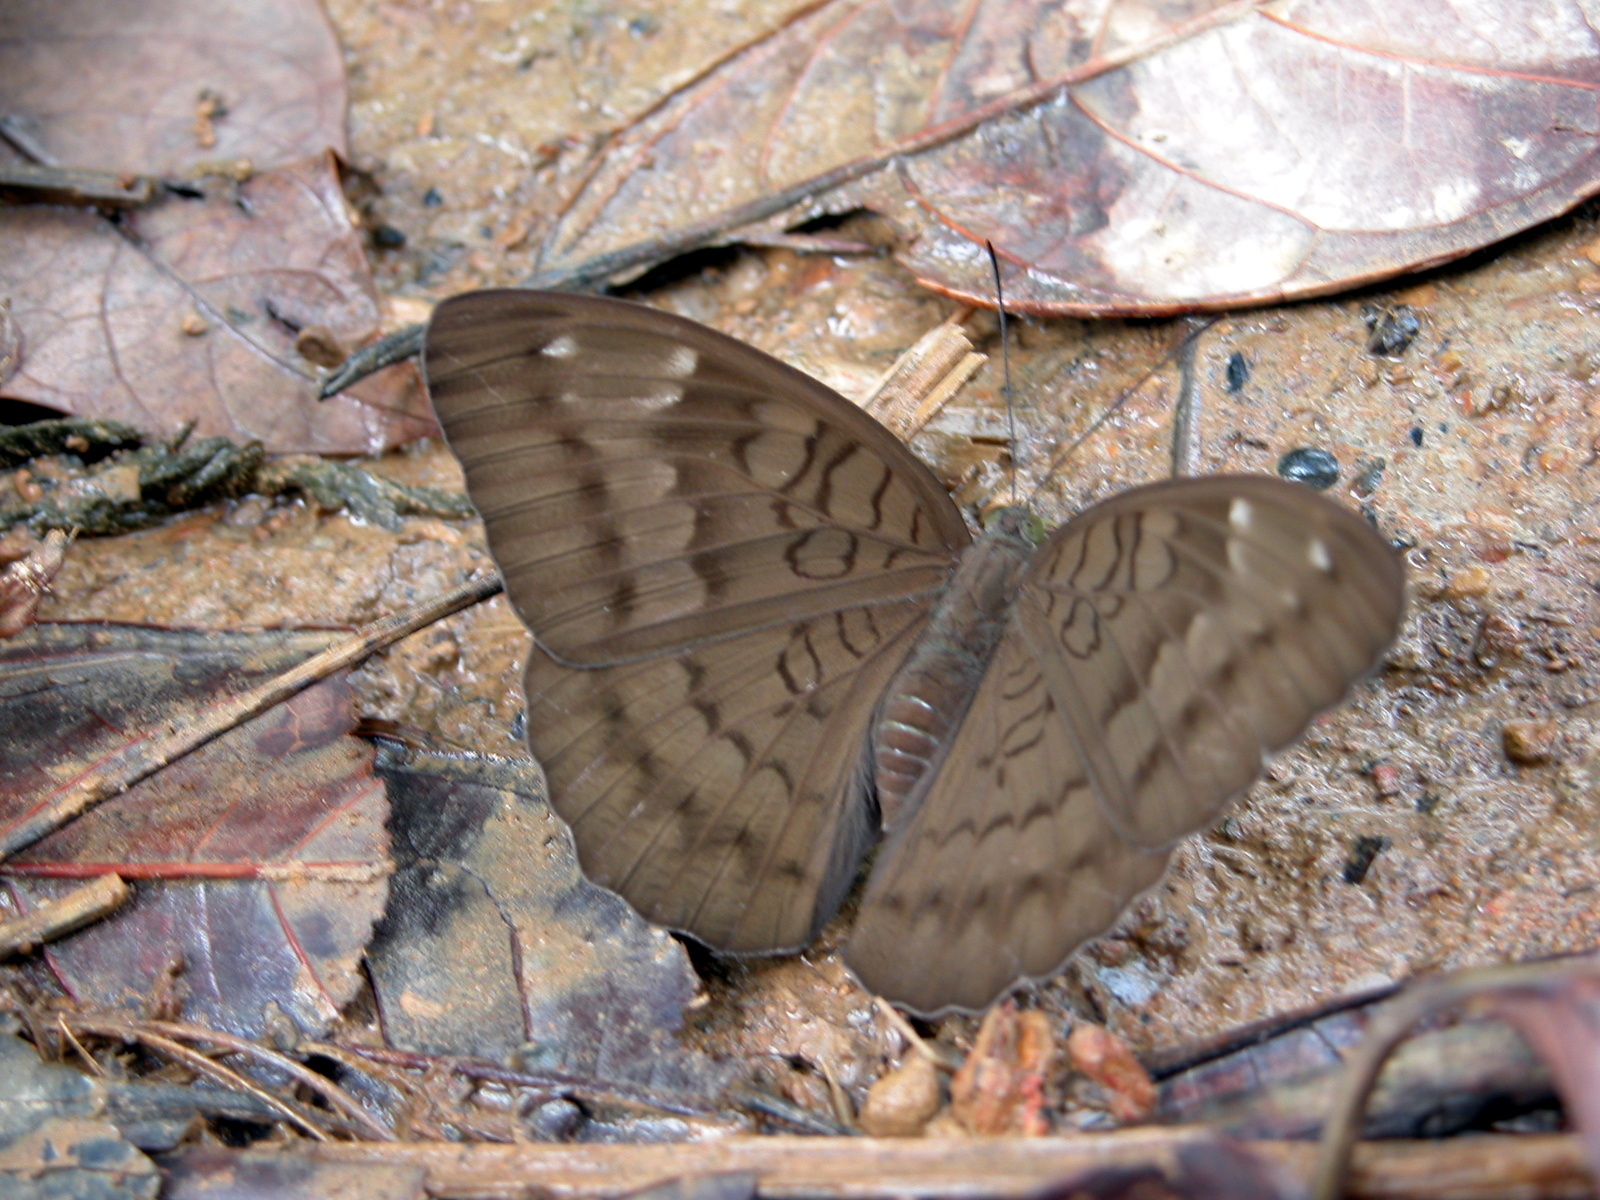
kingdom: Animalia
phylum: Arthropoda
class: Insecta
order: Lepidoptera
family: Nymphalidae
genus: Tanaecia
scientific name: Tanaecia julii
